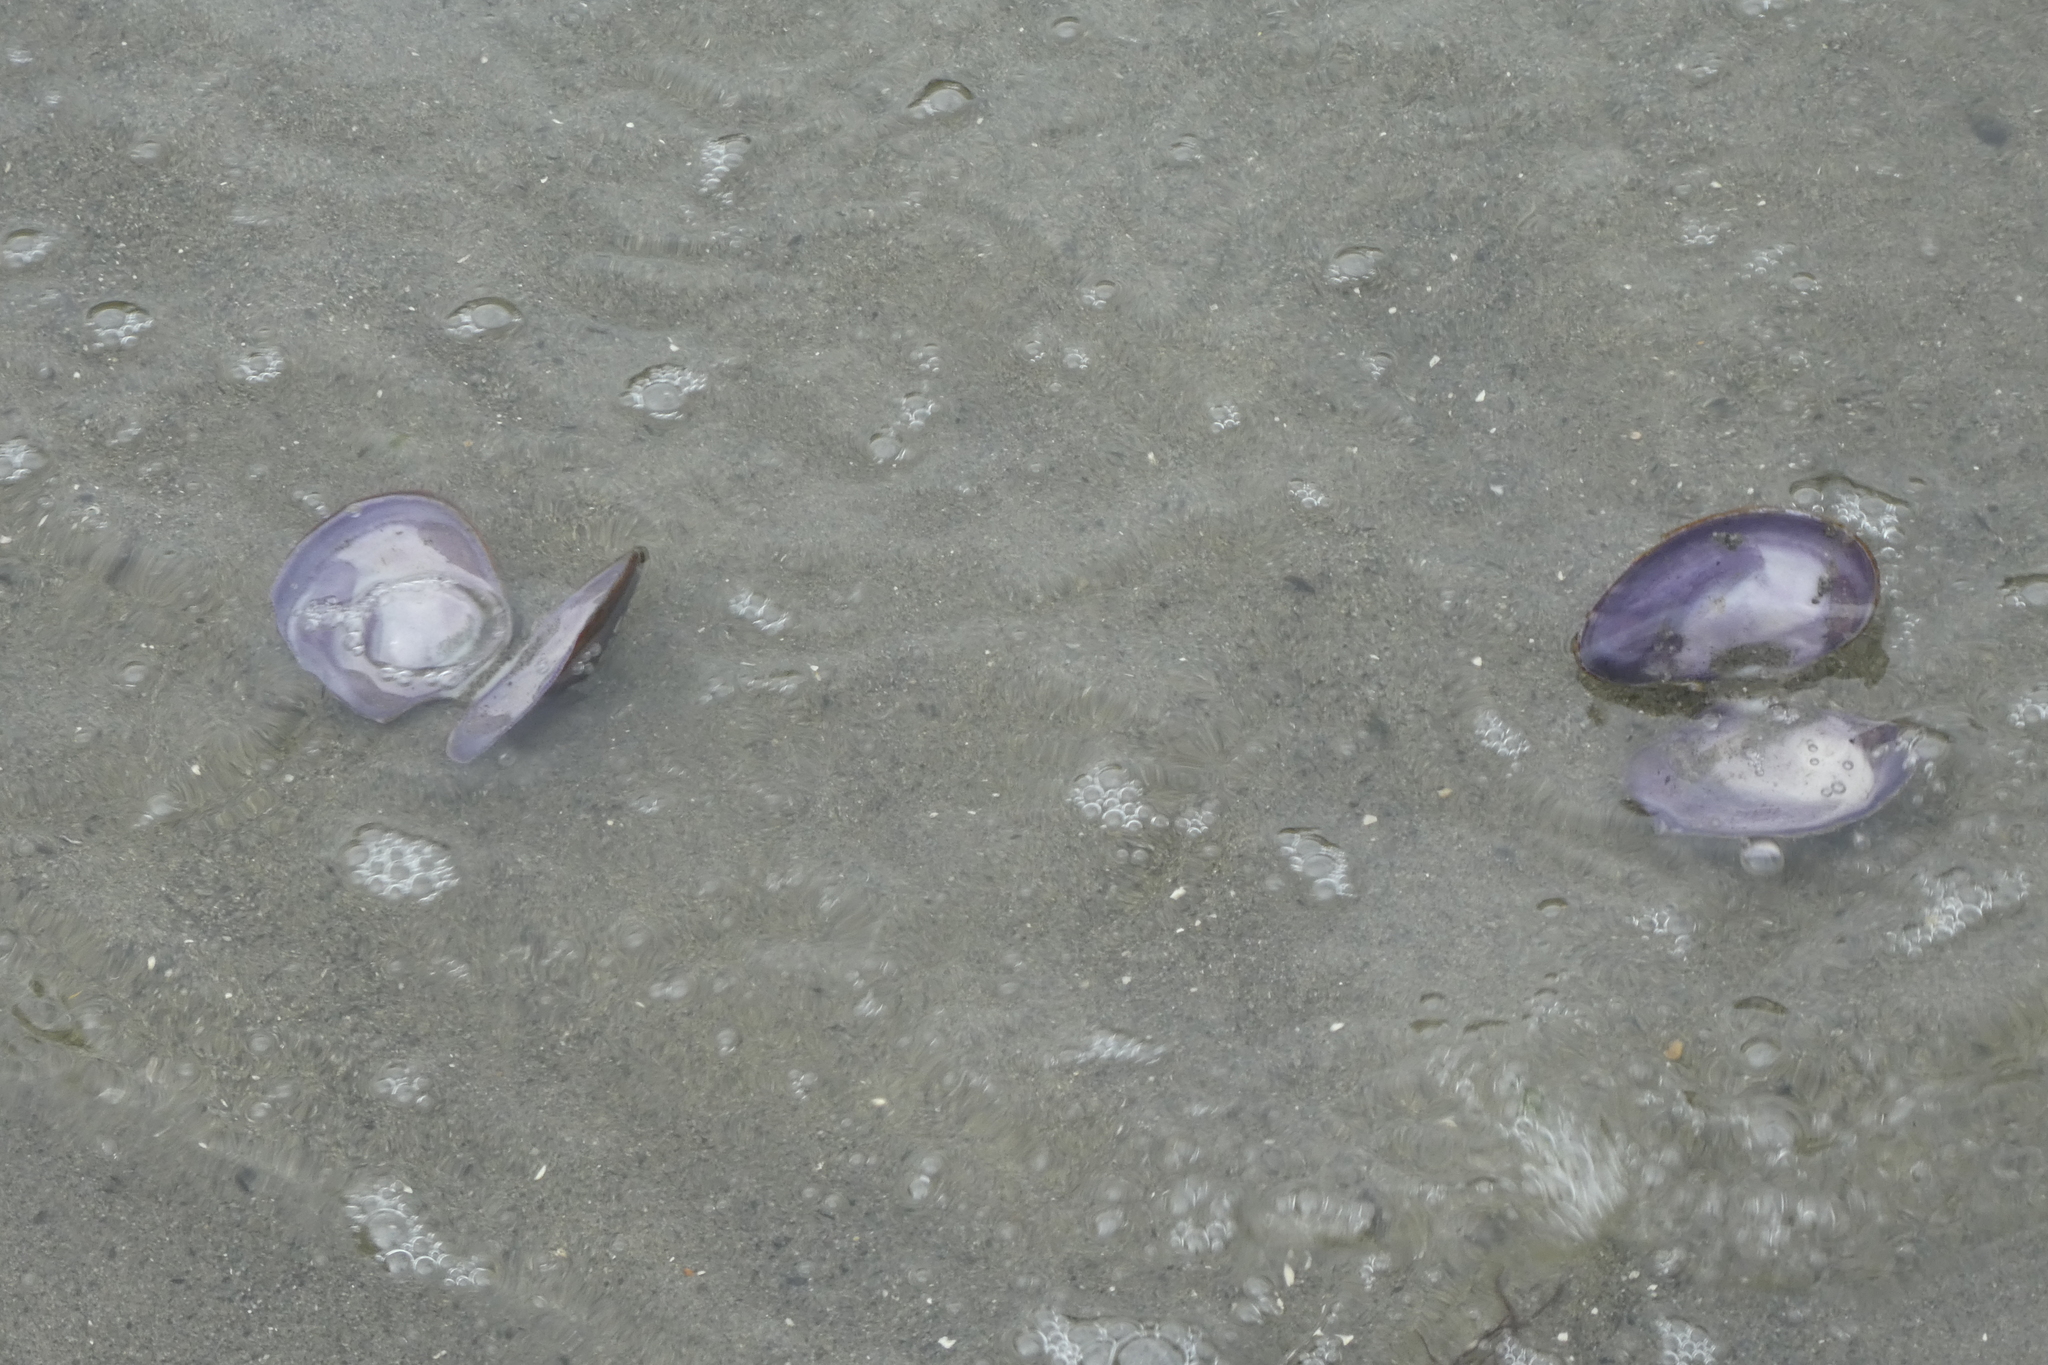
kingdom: Animalia
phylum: Mollusca
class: Bivalvia
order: Cardiida
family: Psammobiidae
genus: Nuttallia
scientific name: Nuttallia obscurata
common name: Purple mahogany-clam
